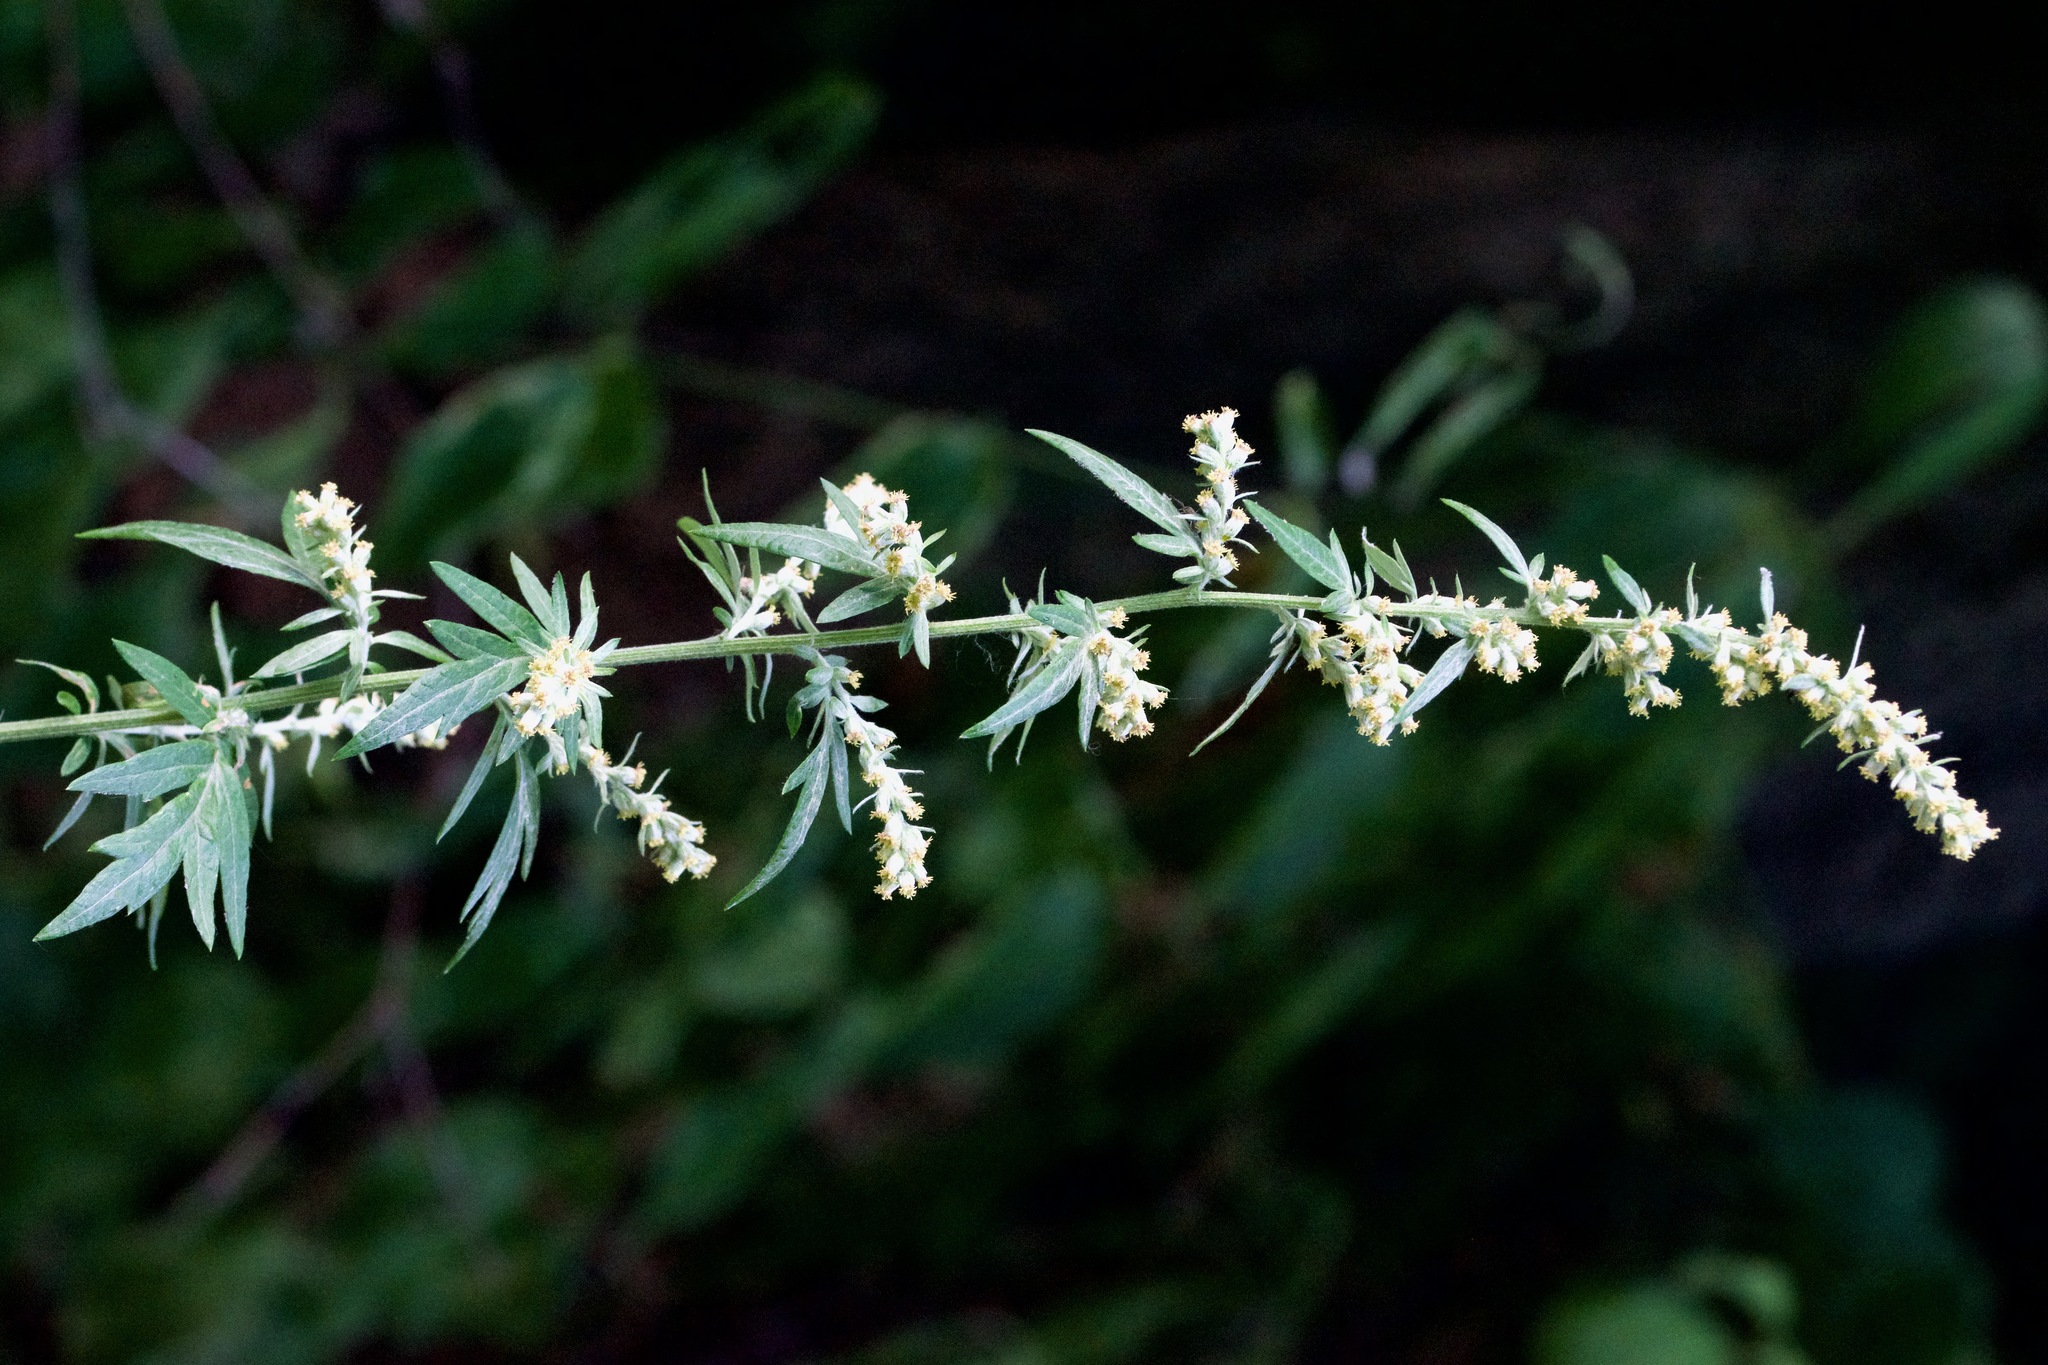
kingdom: Plantae
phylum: Tracheophyta
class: Magnoliopsida
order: Asterales
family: Asteraceae
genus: Artemisia
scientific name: Artemisia vulgaris
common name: Mugwort
